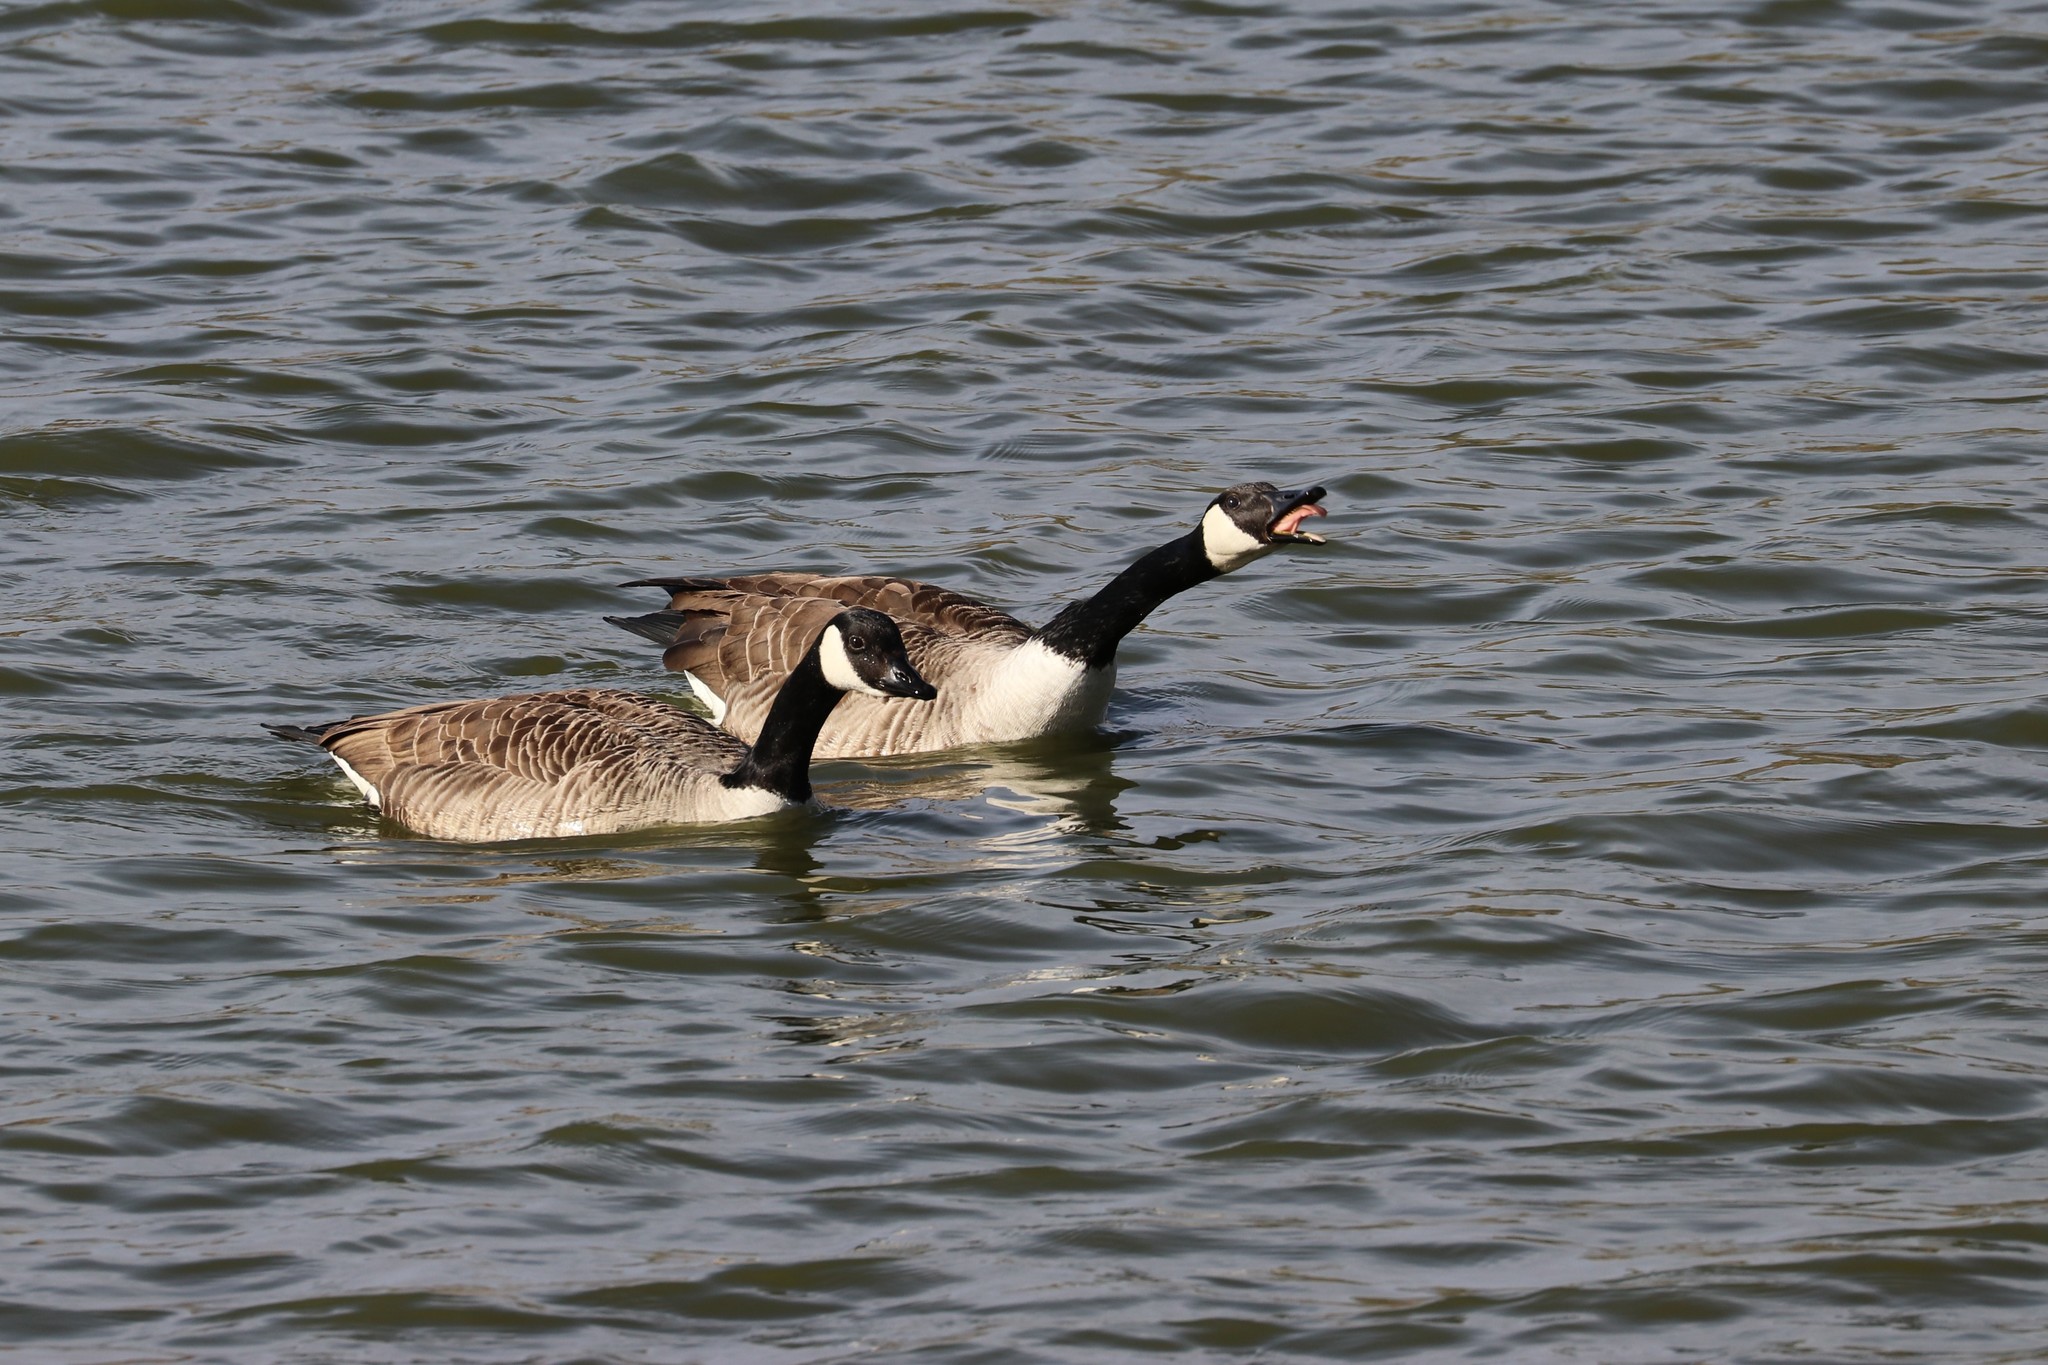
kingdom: Animalia
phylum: Chordata
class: Aves
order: Anseriformes
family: Anatidae
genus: Branta
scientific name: Branta canadensis
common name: Canada goose
